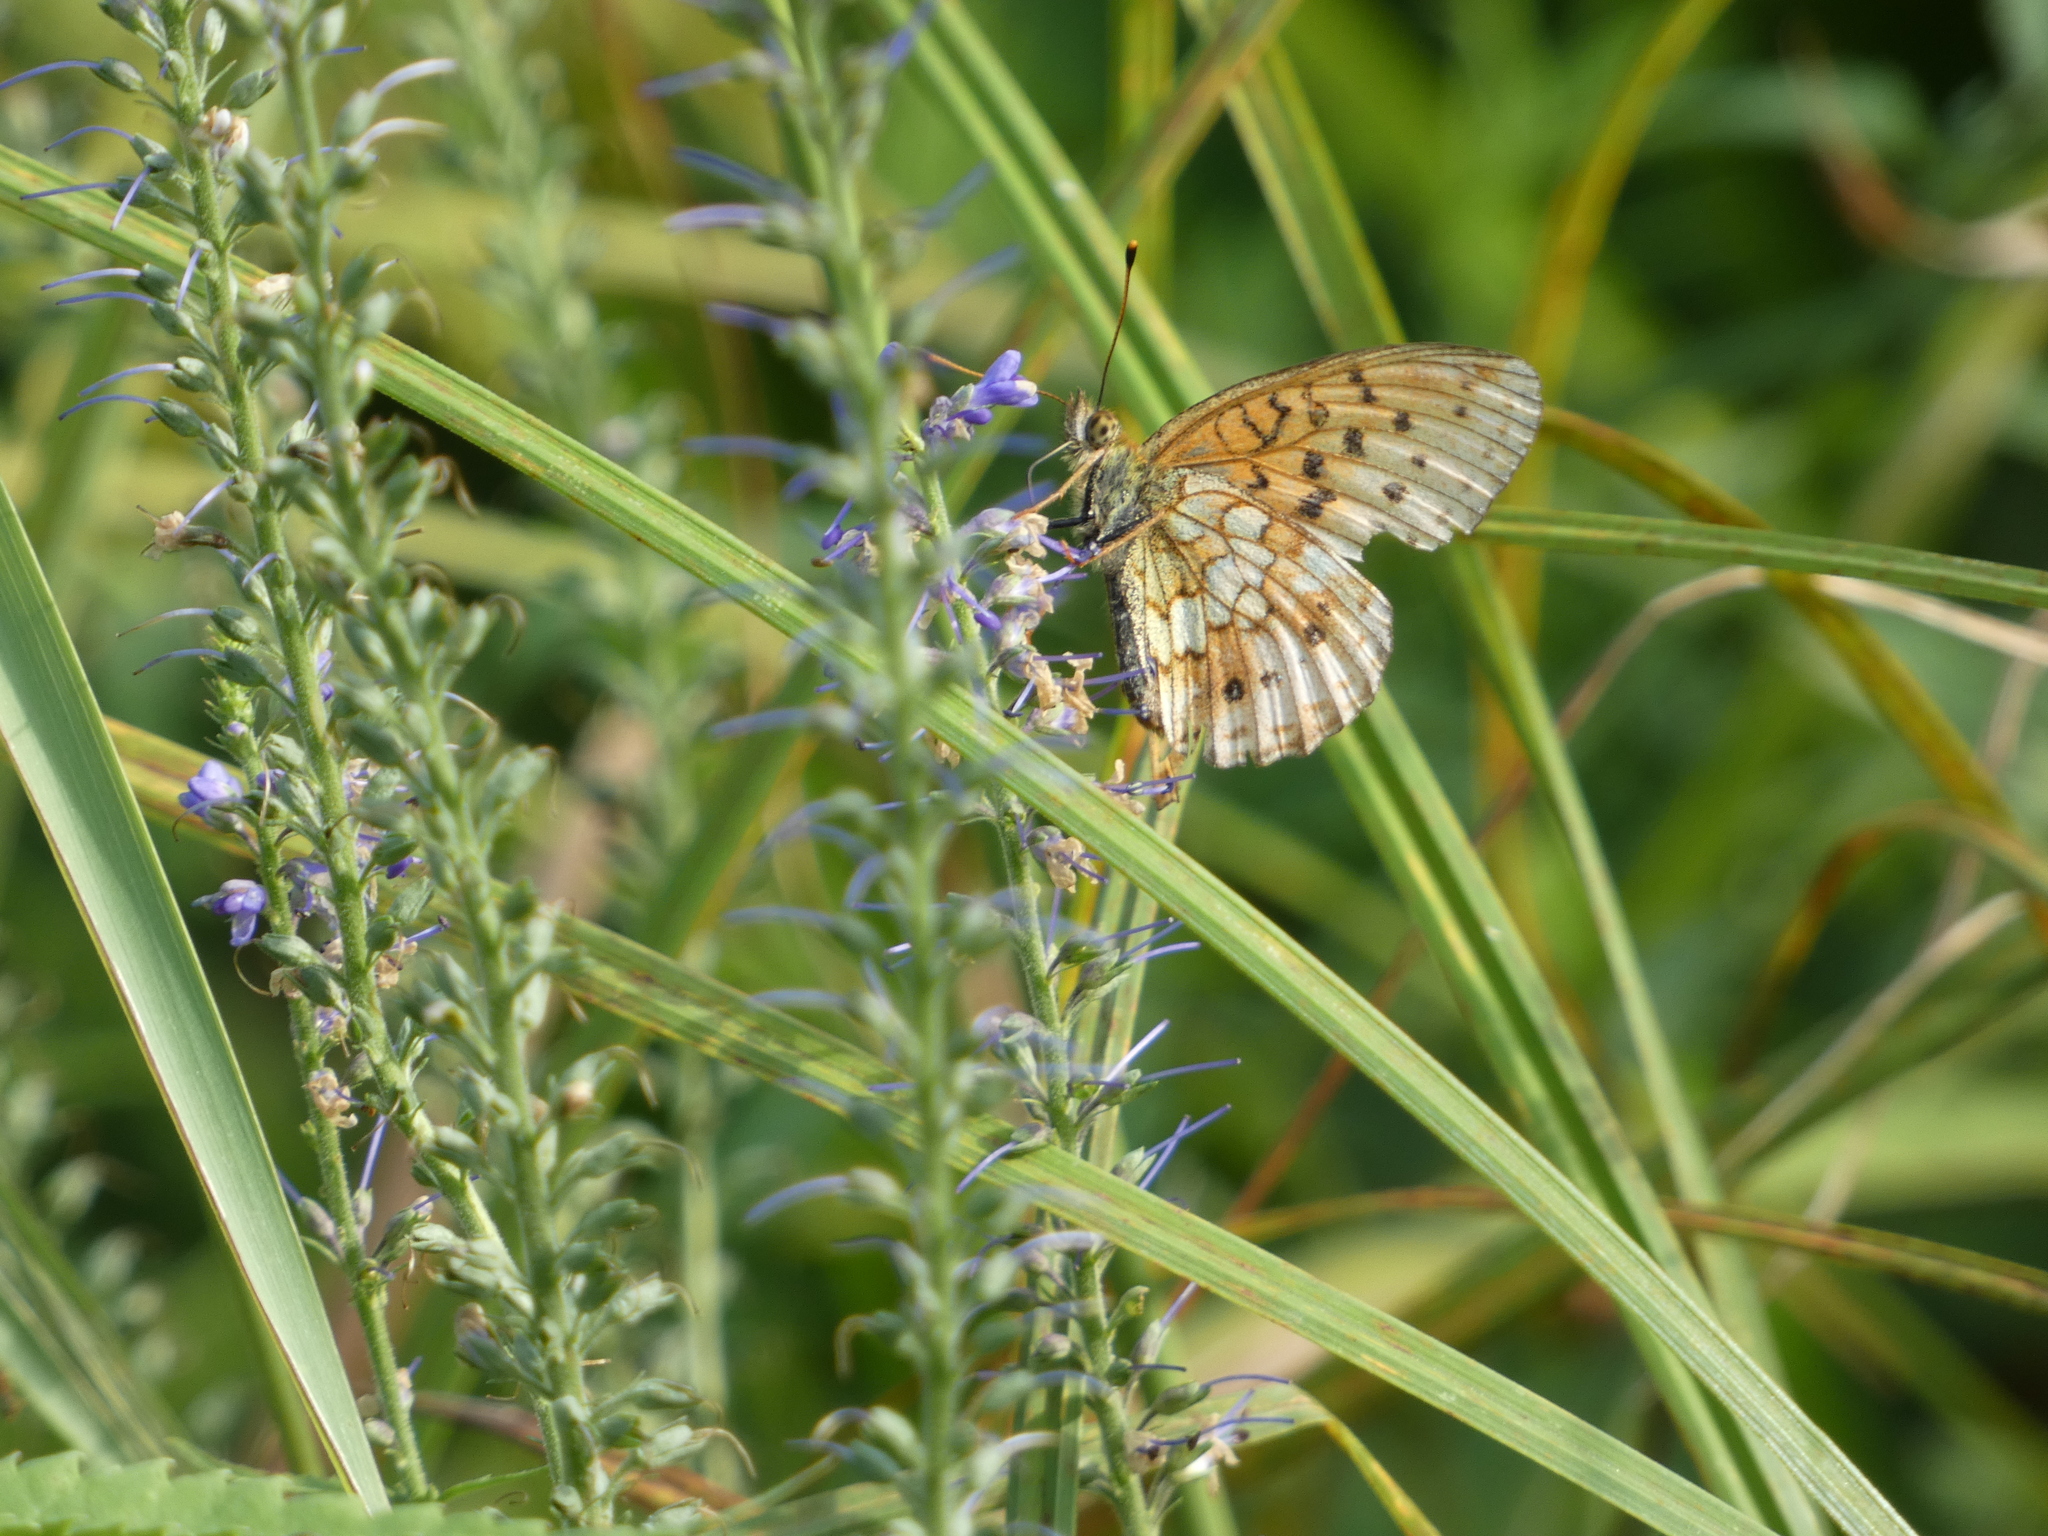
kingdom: Animalia
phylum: Arthropoda
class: Insecta
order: Lepidoptera
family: Nymphalidae
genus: Brenthis
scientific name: Brenthis ino
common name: Lesser marbled fritillary
